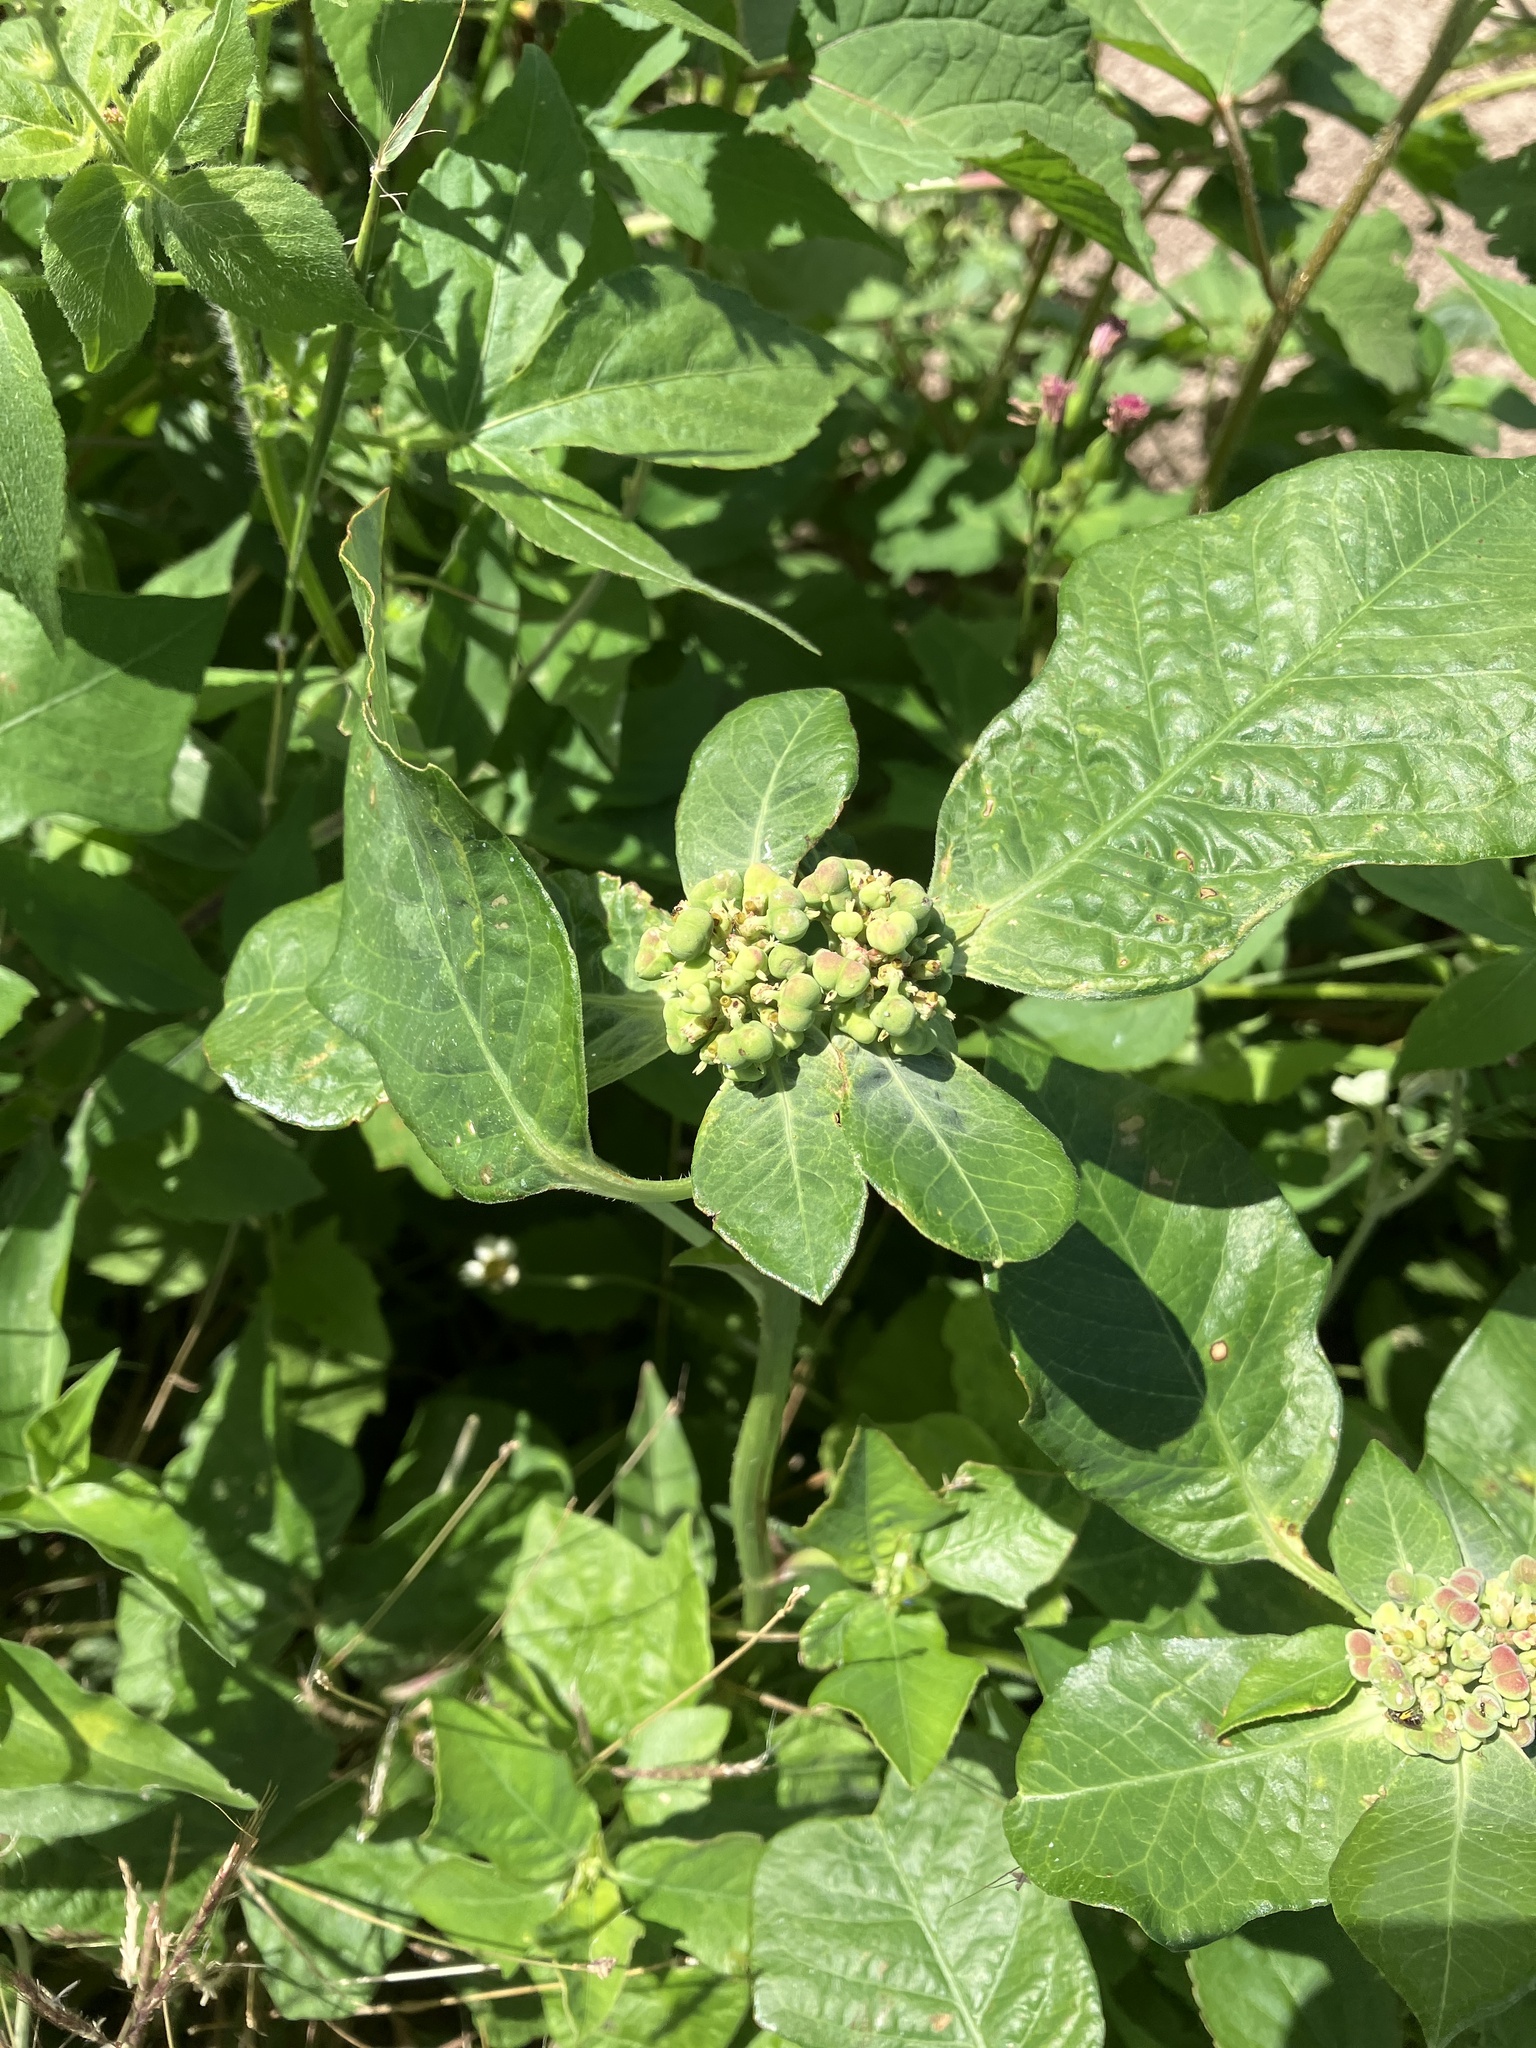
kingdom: Plantae
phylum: Tracheophyta
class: Magnoliopsida
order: Malpighiales
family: Euphorbiaceae
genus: Euphorbia
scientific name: Euphorbia heterophylla
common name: Mexican fireplant
